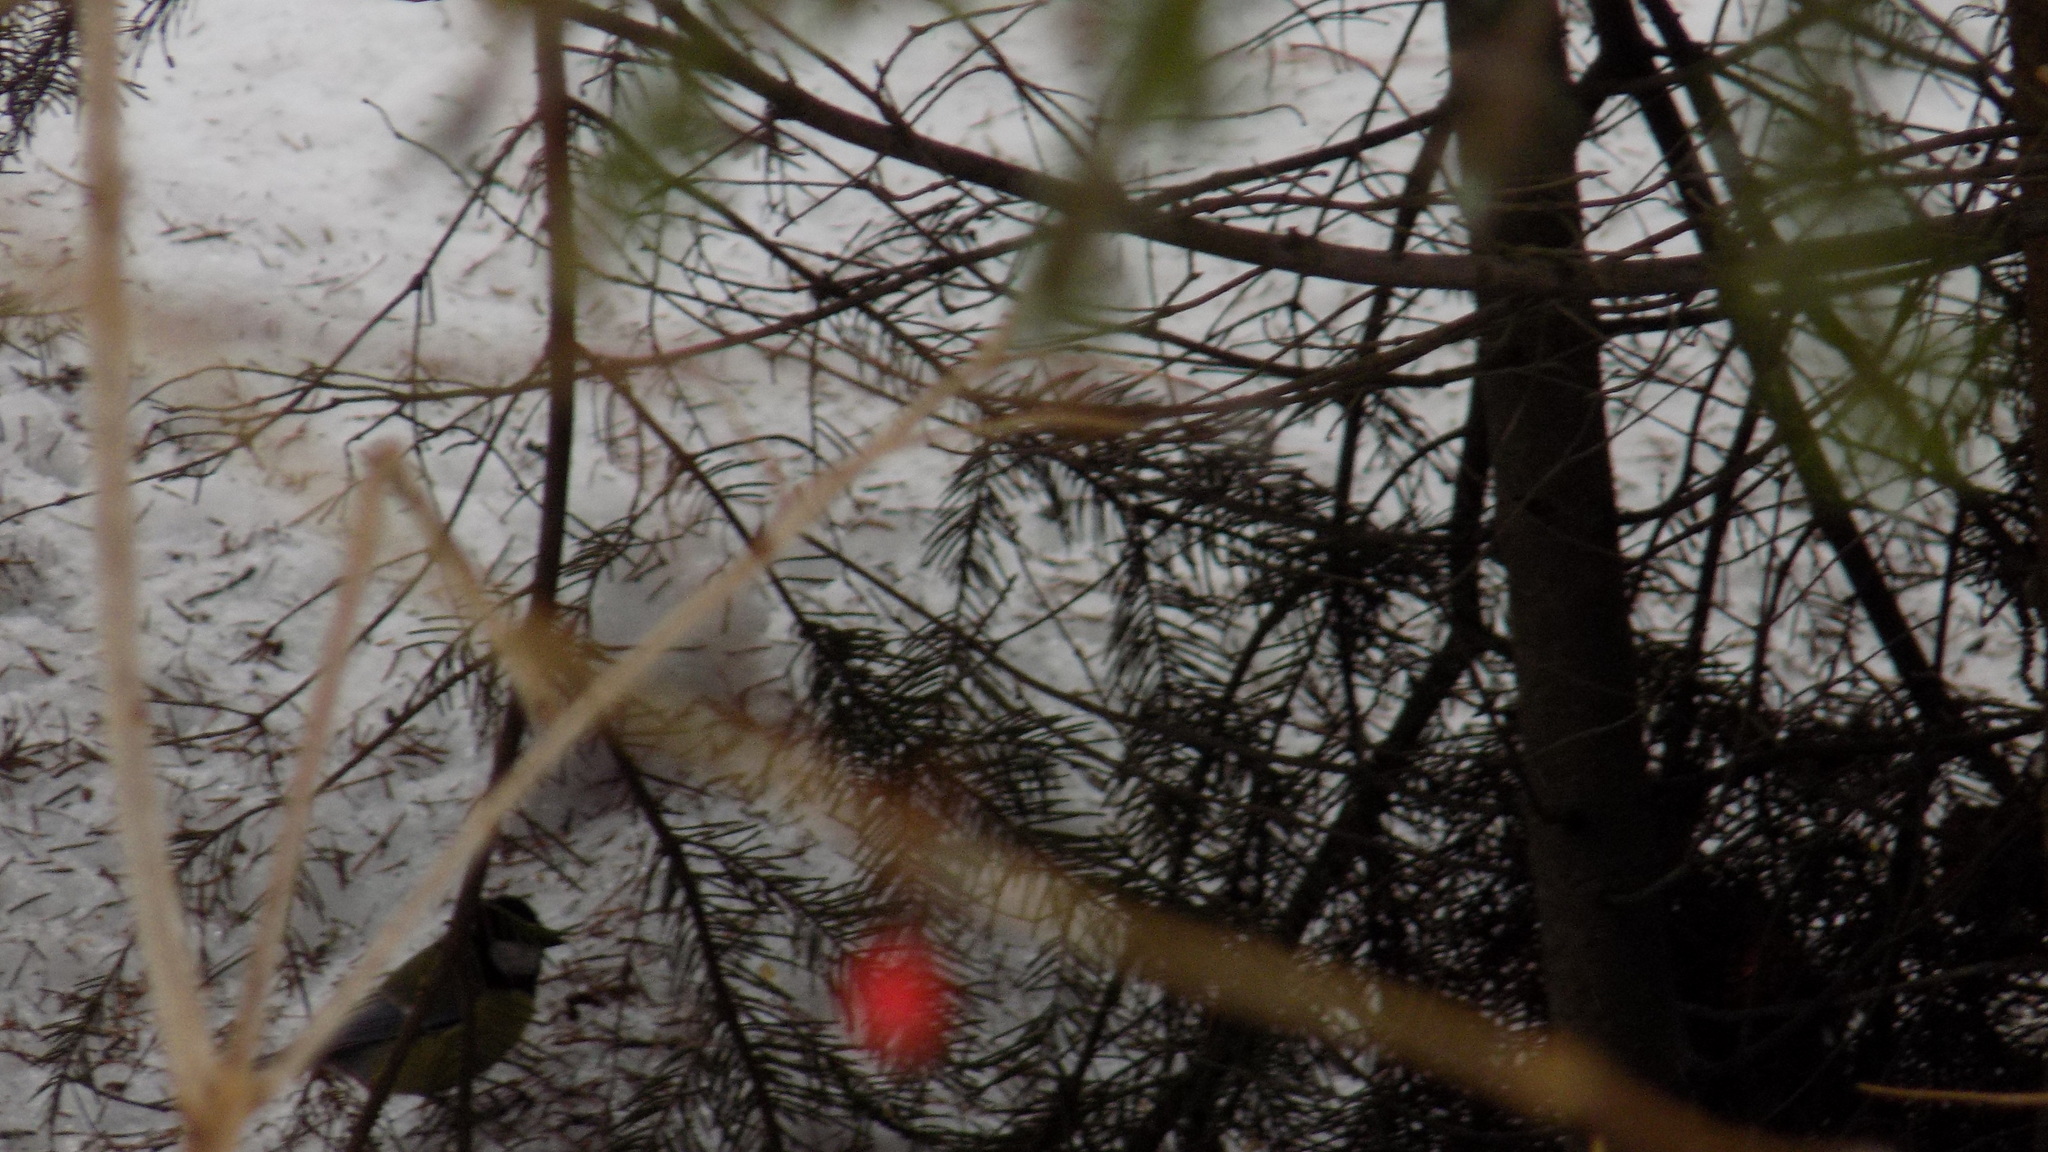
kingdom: Animalia
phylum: Chordata
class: Aves
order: Passeriformes
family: Paridae
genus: Parus
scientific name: Parus major
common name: Great tit
